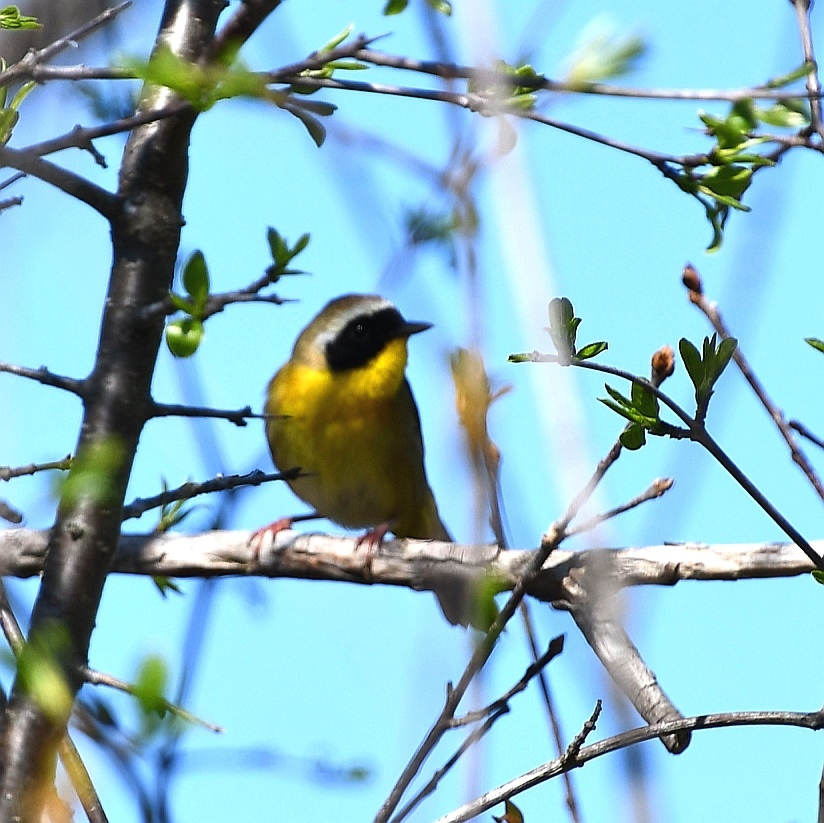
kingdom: Animalia
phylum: Chordata
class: Aves
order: Passeriformes
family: Parulidae
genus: Geothlypis
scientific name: Geothlypis trichas
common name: Common yellowthroat
